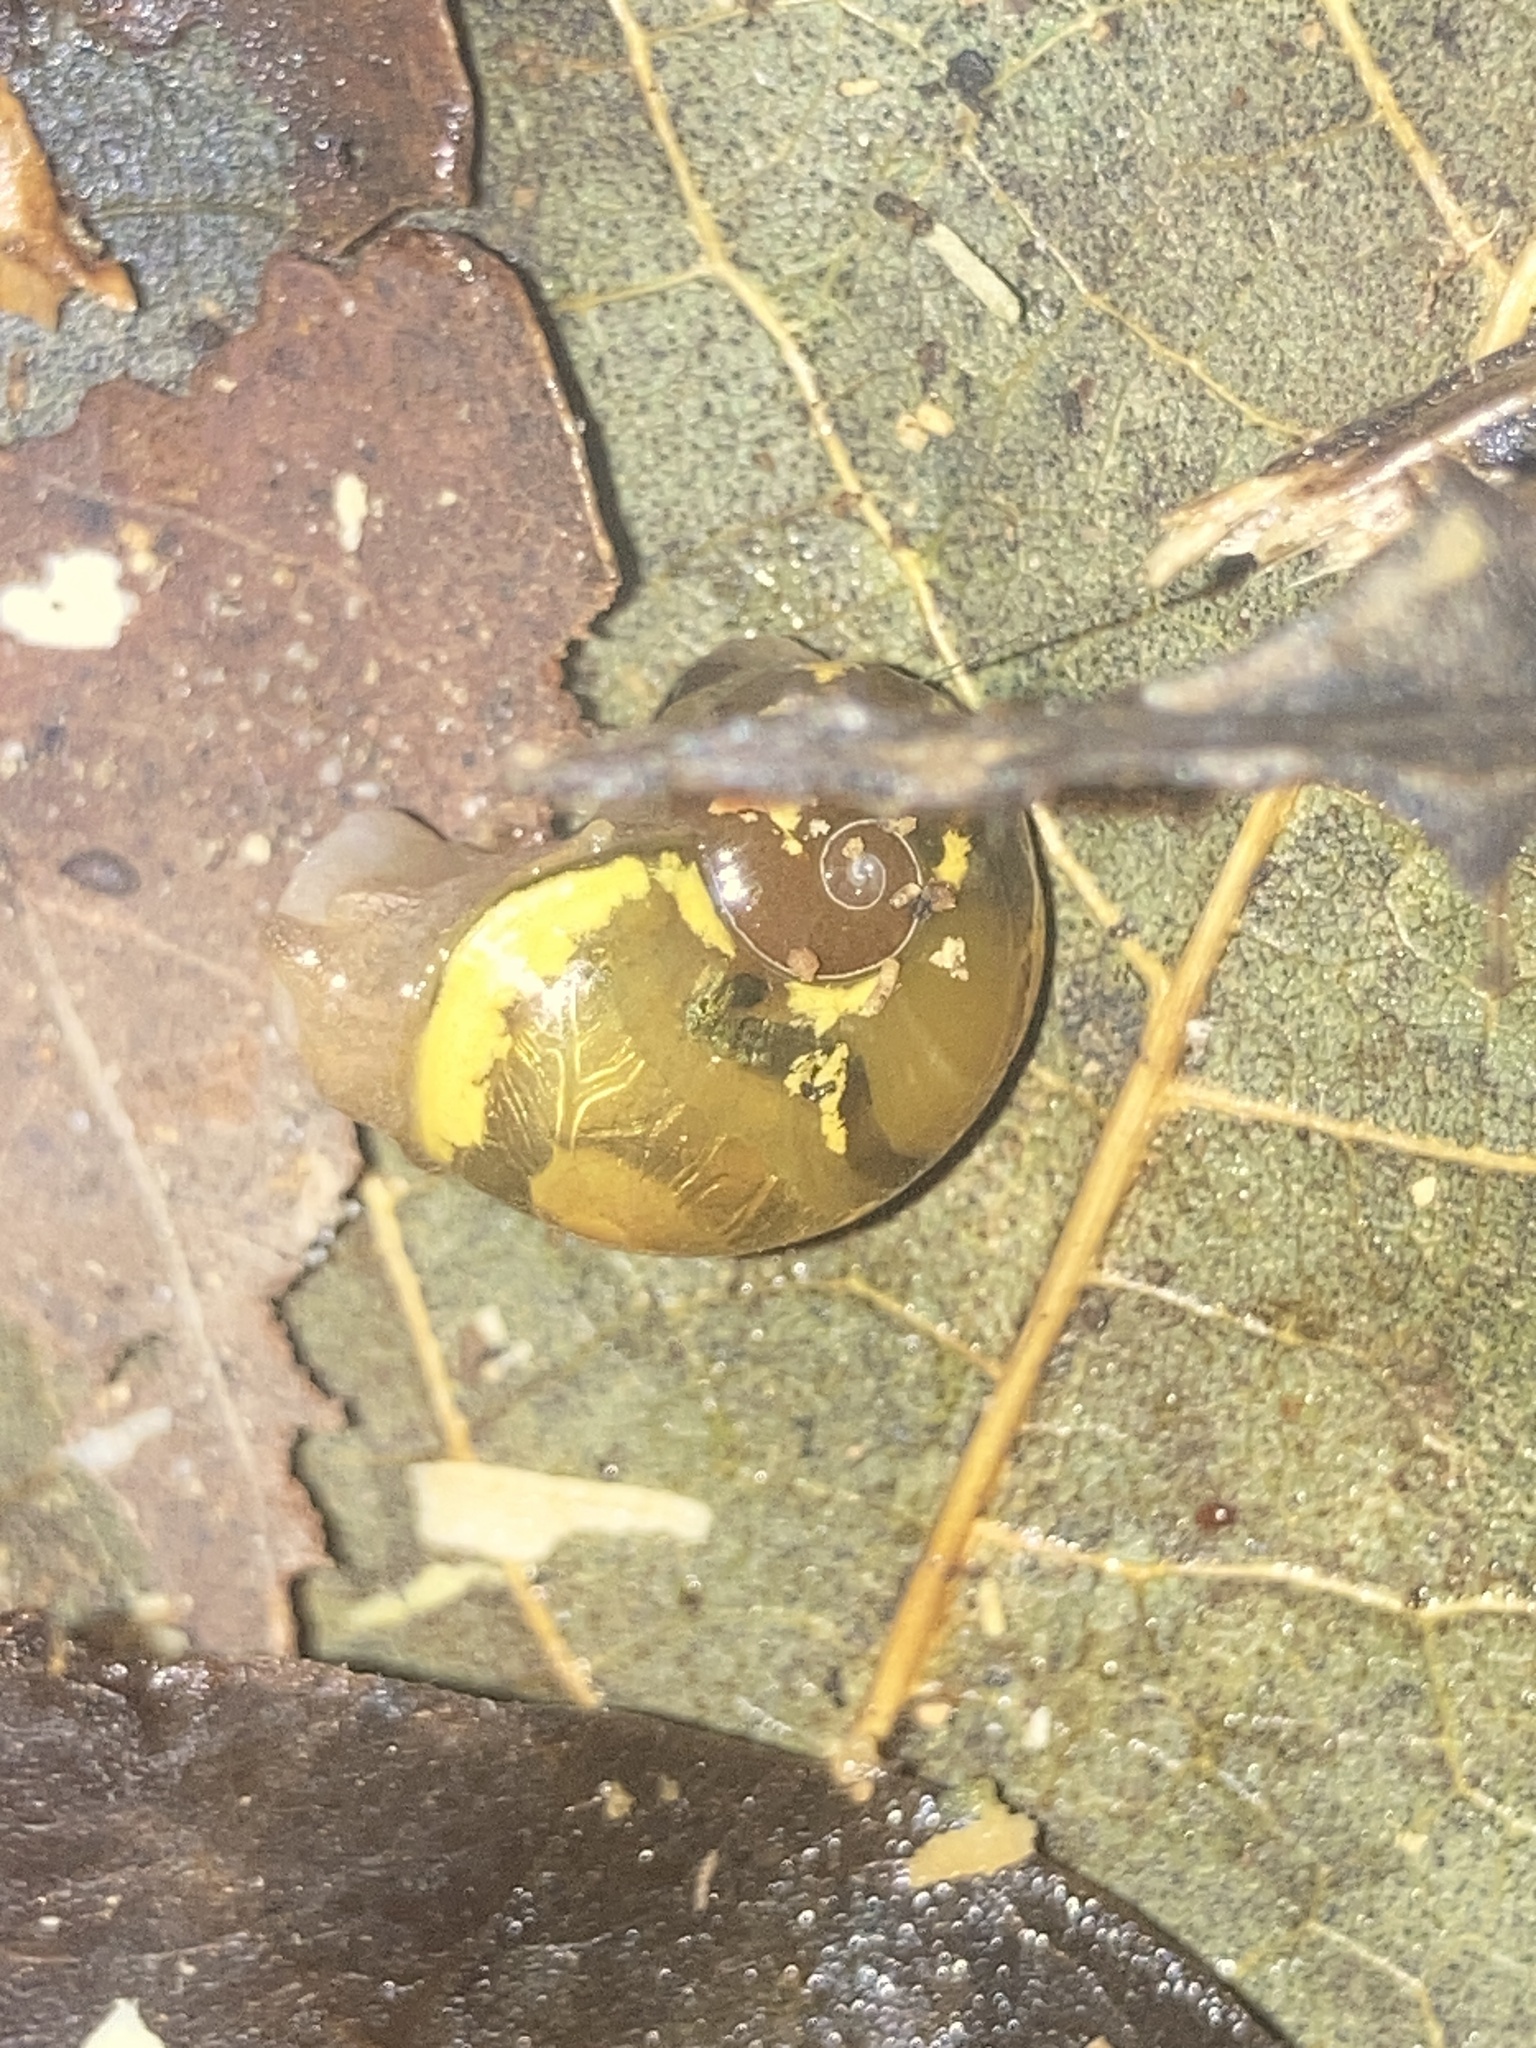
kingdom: Animalia
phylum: Mollusca
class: Gastropoda
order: Stylommatophora
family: Helicarionidae
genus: Helicarion
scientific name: Helicarion mastersi
